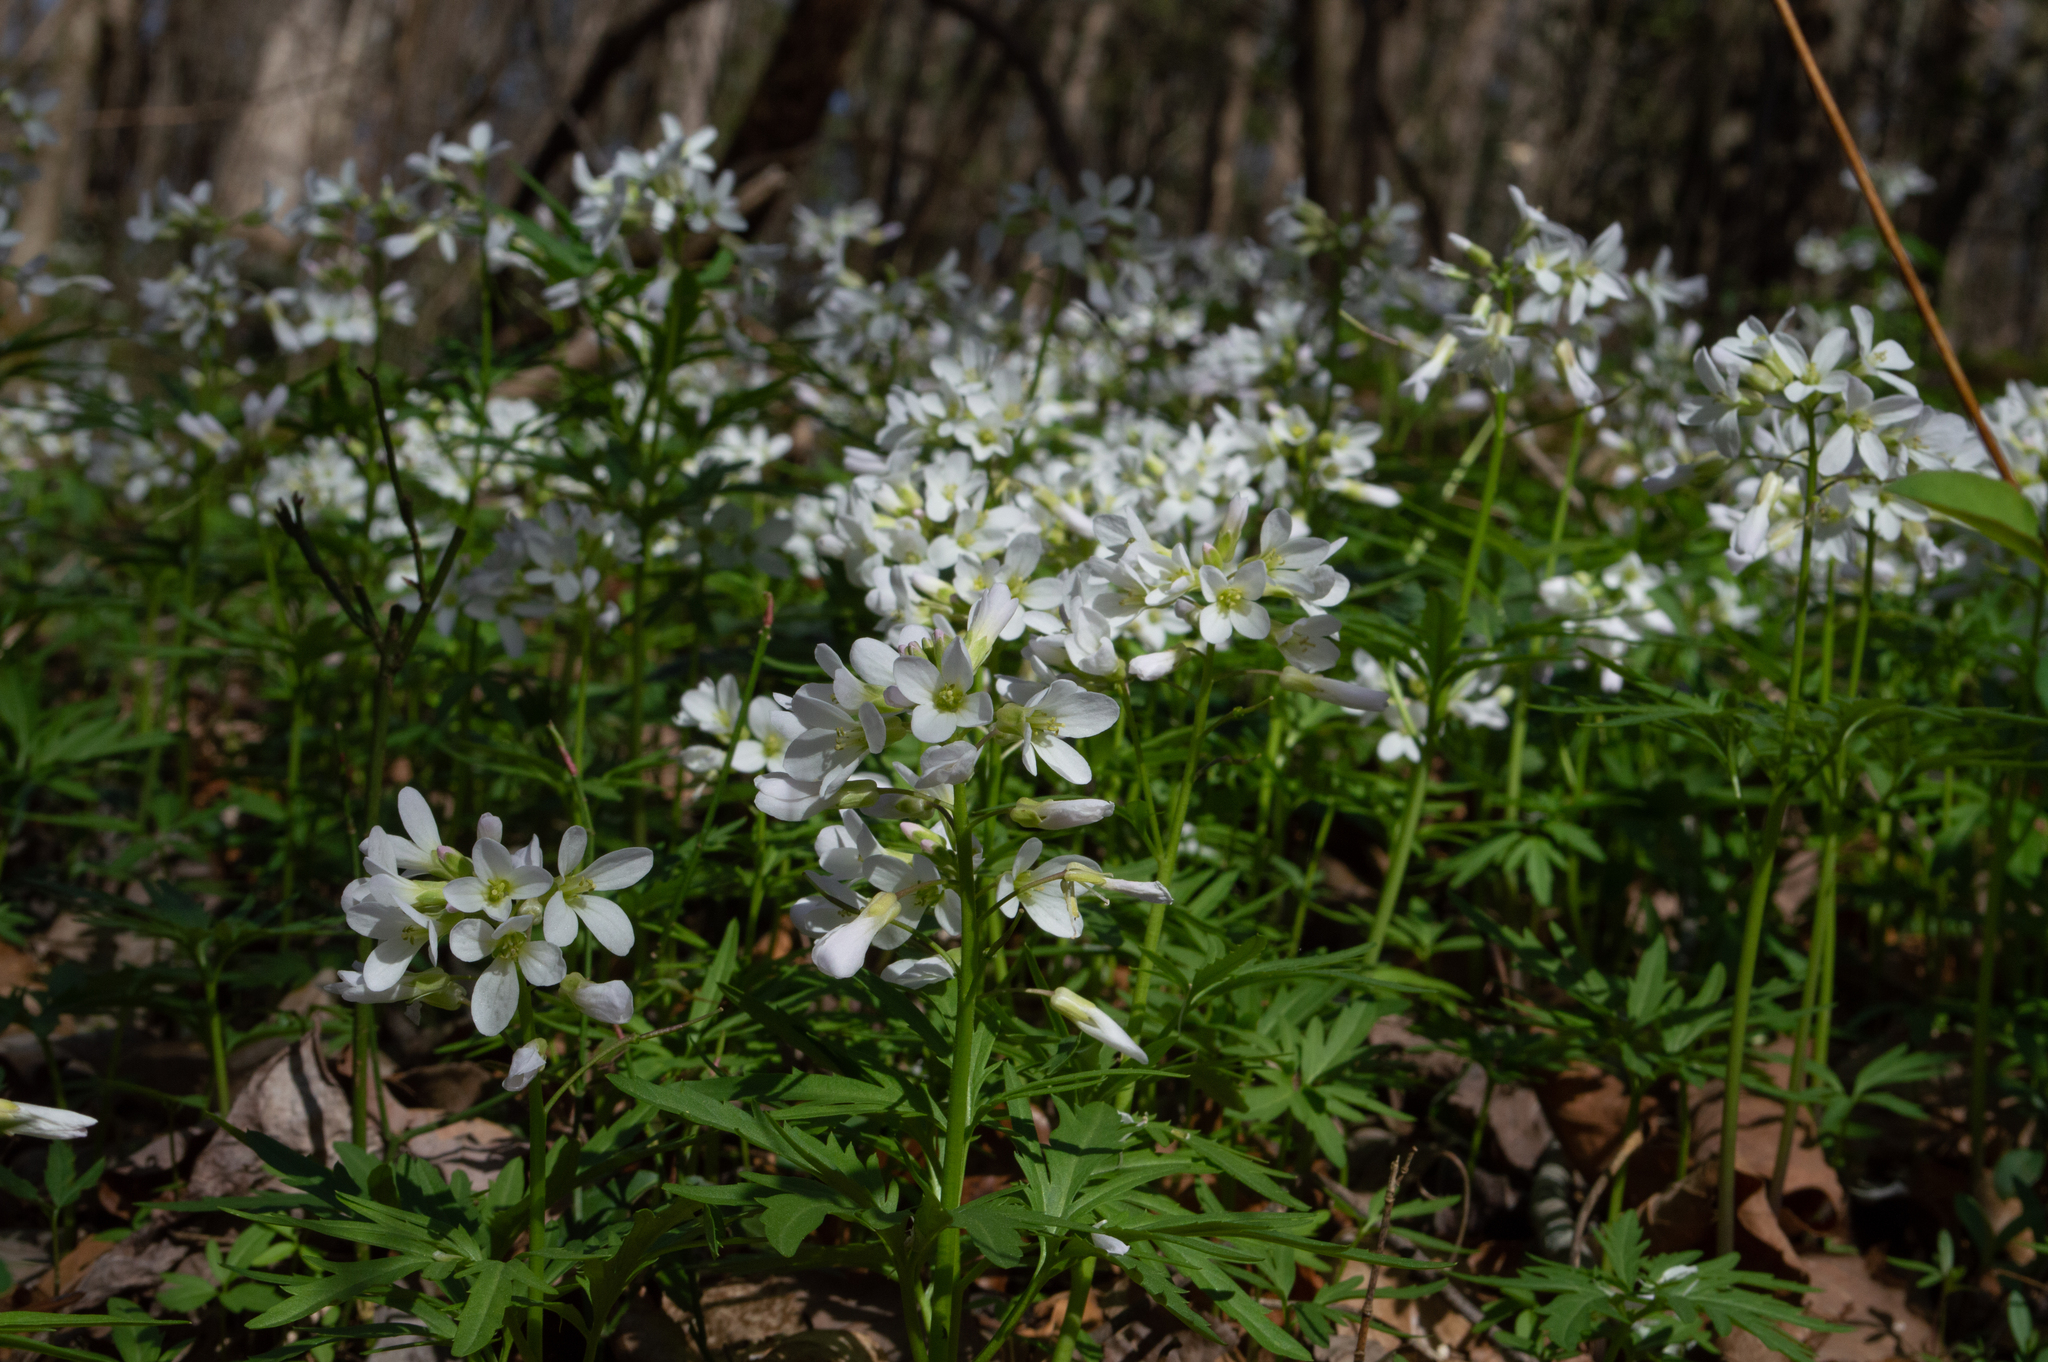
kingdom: Plantae
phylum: Tracheophyta
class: Magnoliopsida
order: Brassicales
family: Brassicaceae
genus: Cardamine
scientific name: Cardamine concatenata
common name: Cut-leaf toothcup
